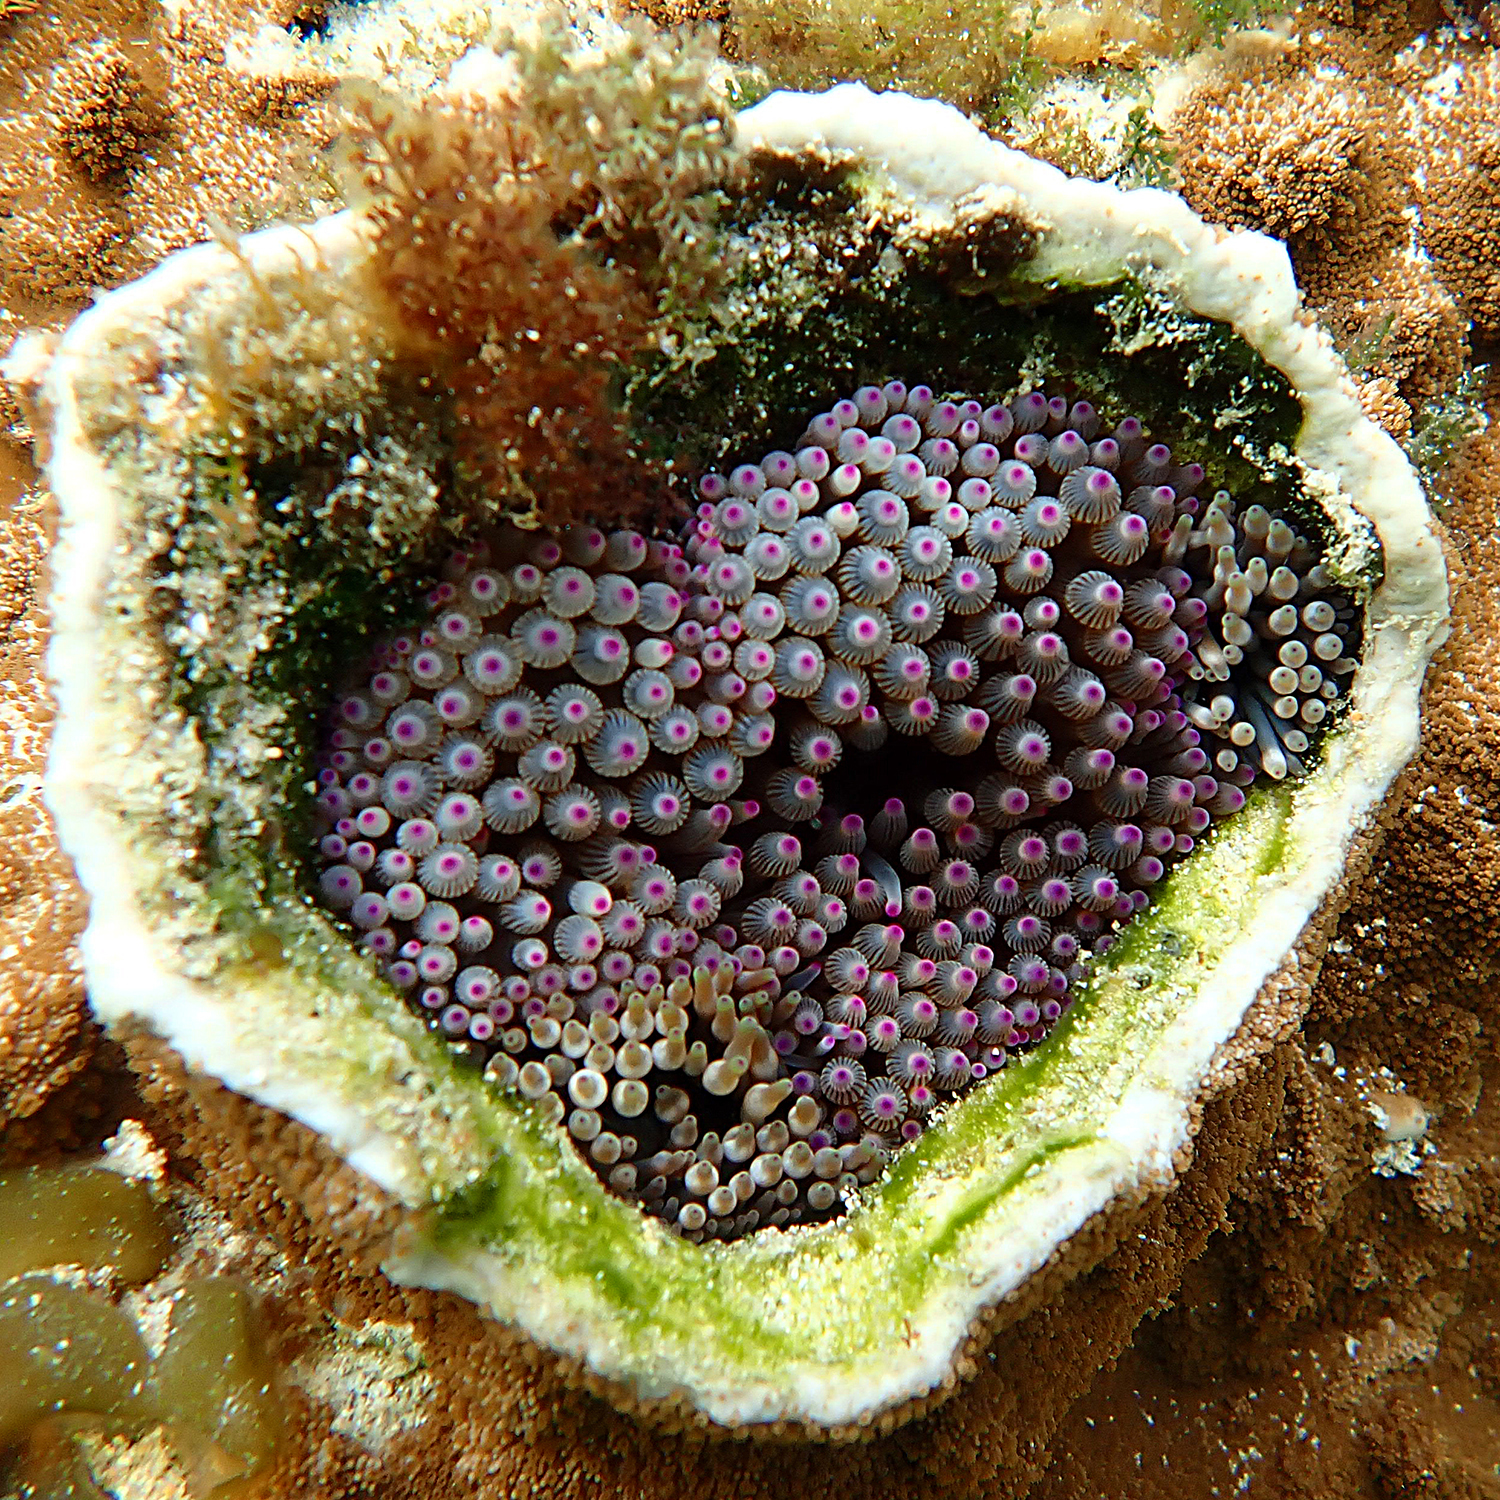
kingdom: Animalia
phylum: Cnidaria
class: Anthozoa
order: Actiniaria
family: Actiniidae
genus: Entacmaea
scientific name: Entacmaea quadricolor
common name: Bulb tentacle sea anemone
